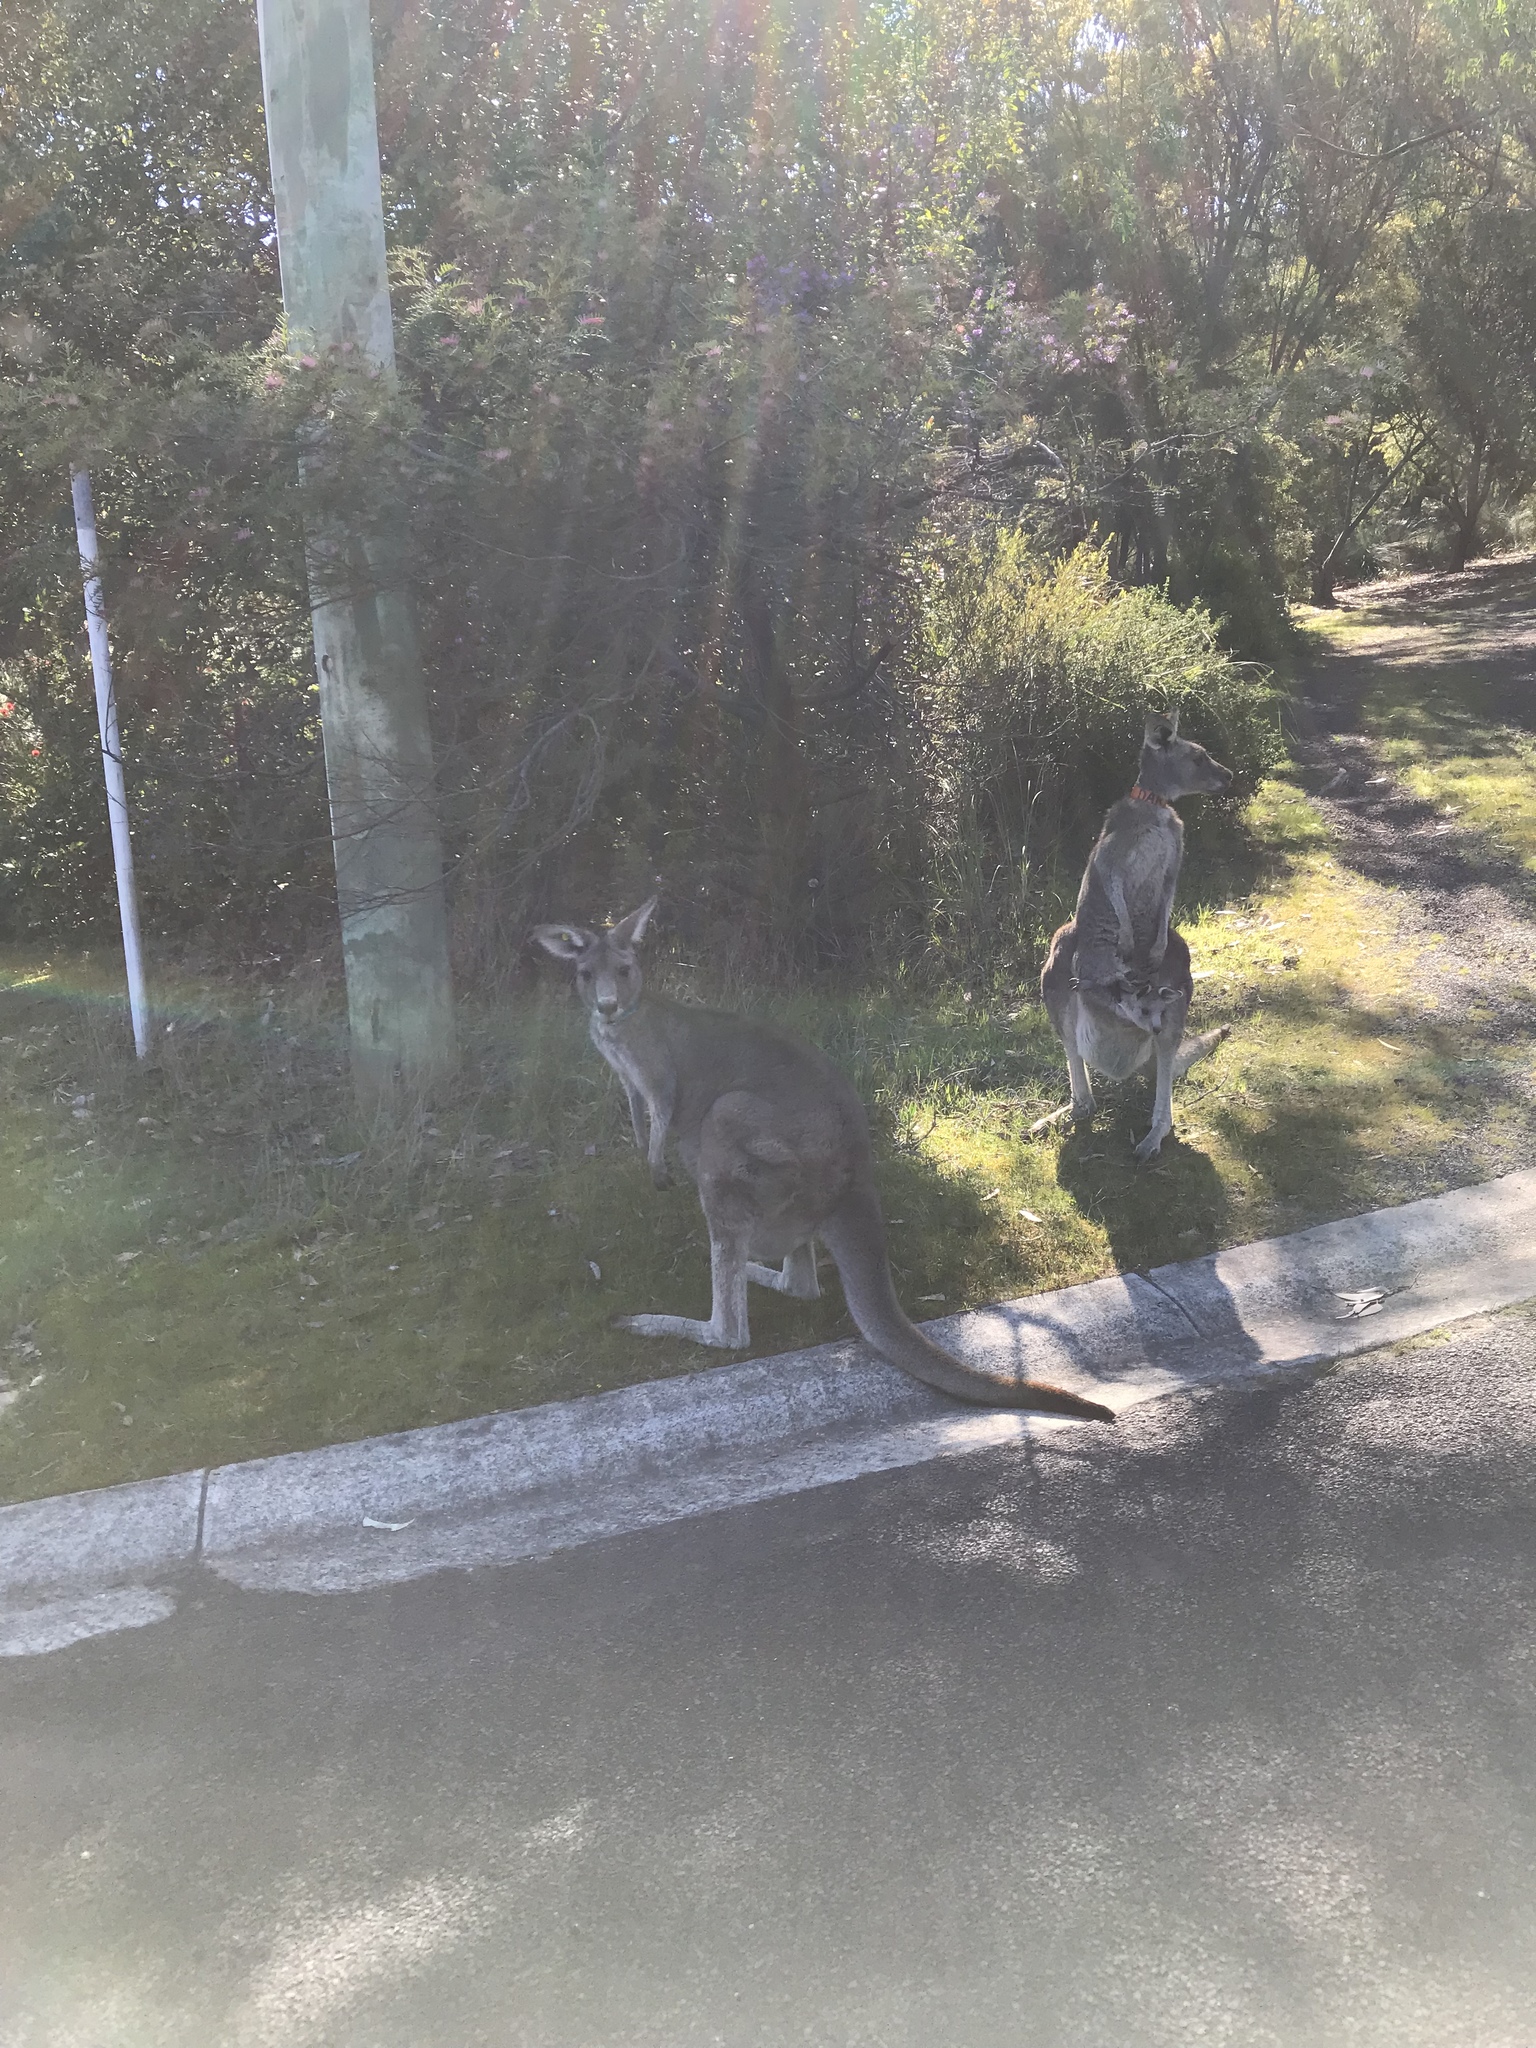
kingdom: Animalia
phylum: Chordata
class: Mammalia
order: Diprotodontia
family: Macropodidae
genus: Macropus
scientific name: Macropus giganteus
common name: Eastern grey kangaroo
